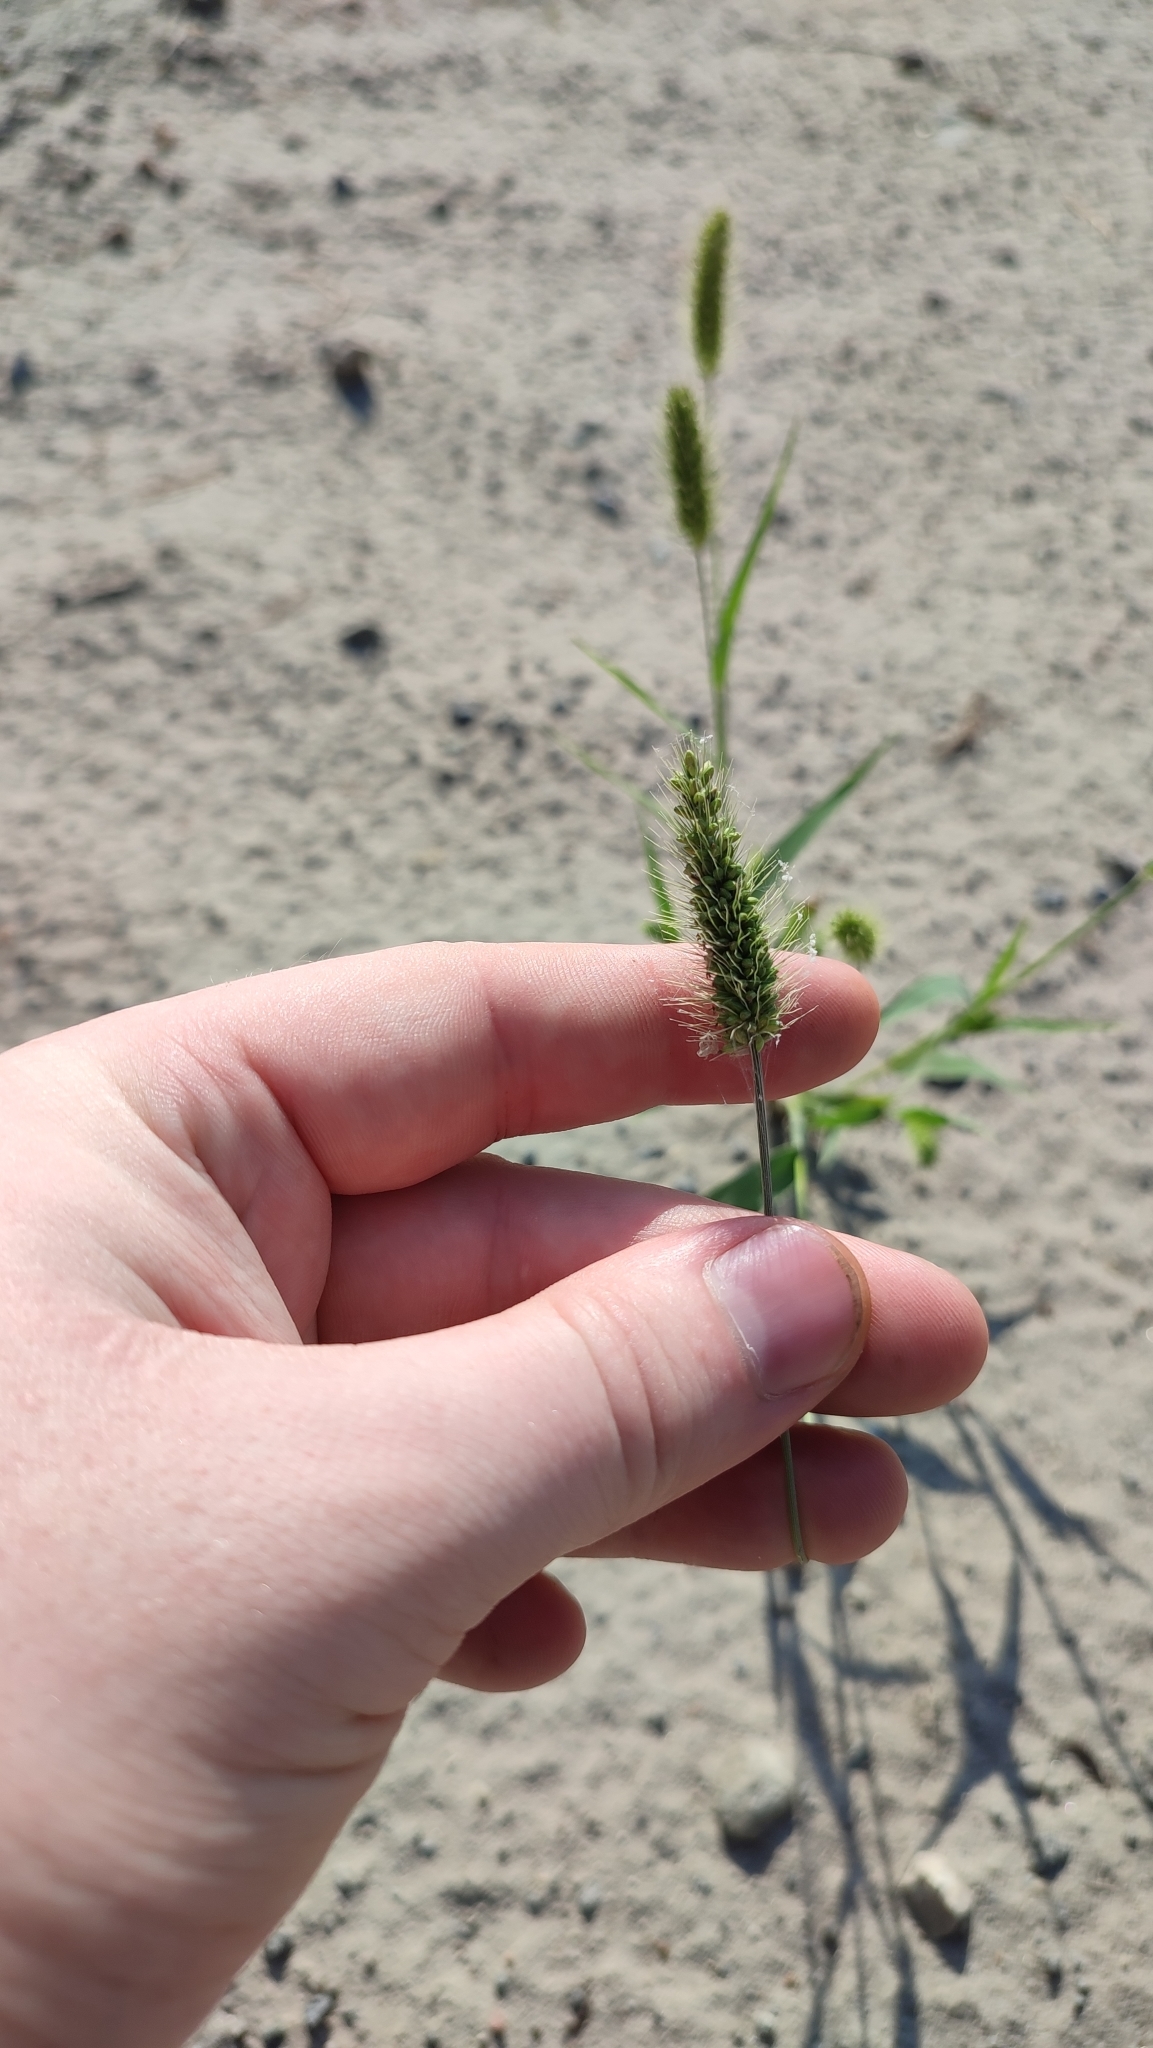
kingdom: Plantae
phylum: Tracheophyta
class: Liliopsida
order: Poales
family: Poaceae
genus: Setaria
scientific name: Setaria viridis
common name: Green bristlegrass
